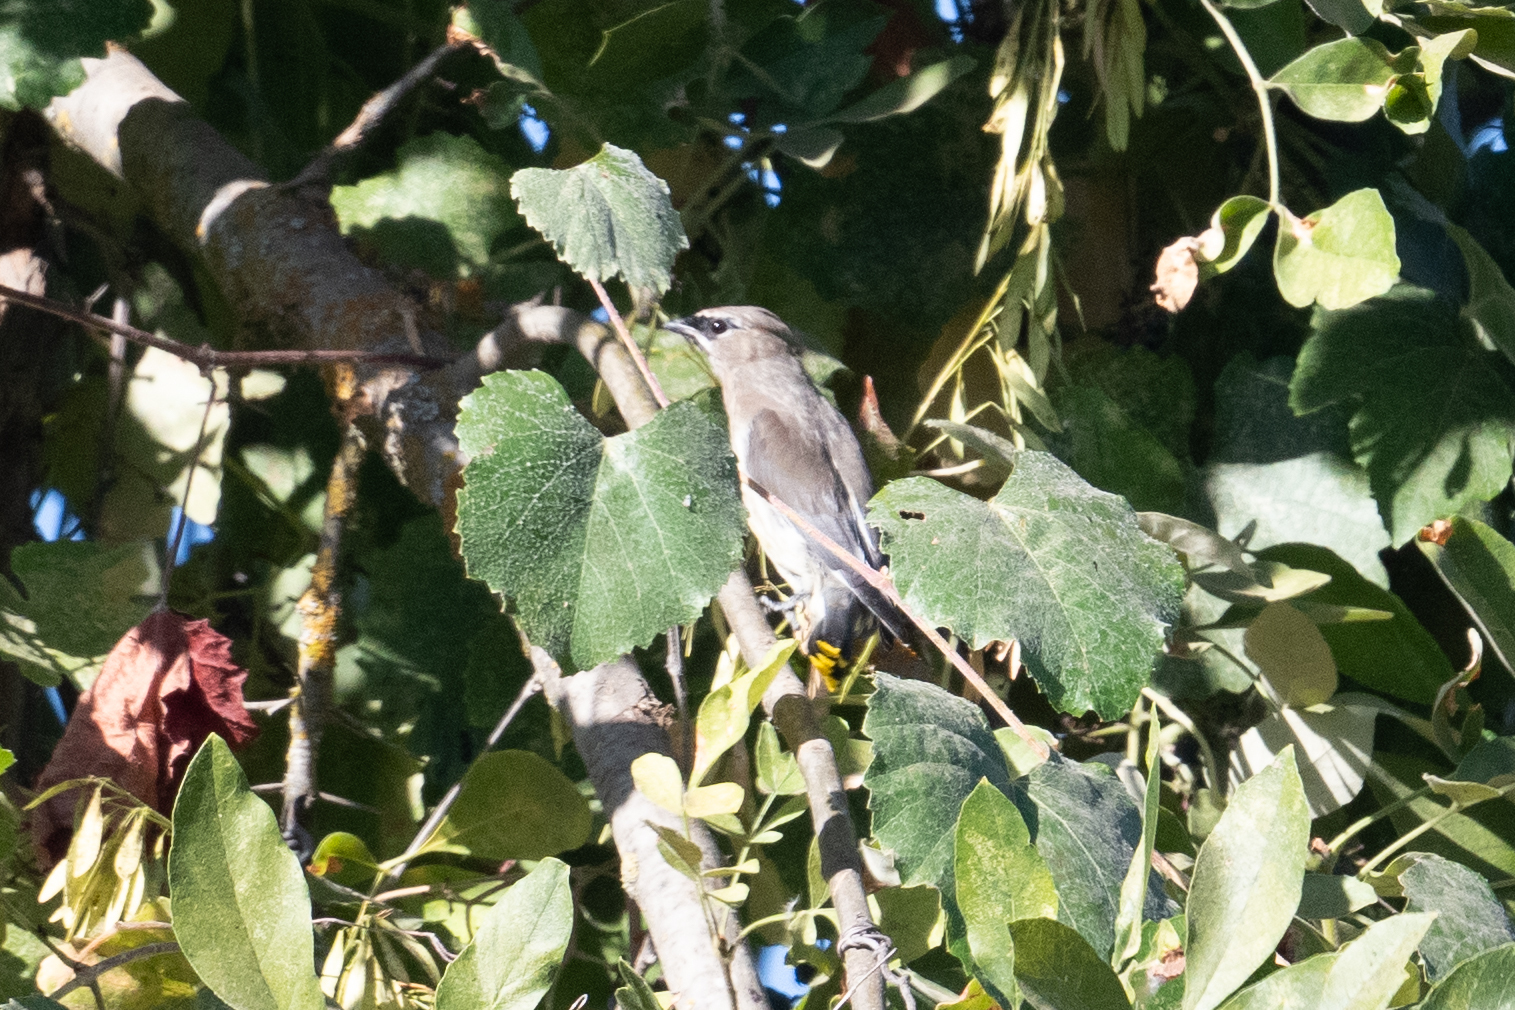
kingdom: Animalia
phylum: Chordata
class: Aves
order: Passeriformes
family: Bombycillidae
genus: Bombycilla
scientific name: Bombycilla cedrorum
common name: Cedar waxwing
